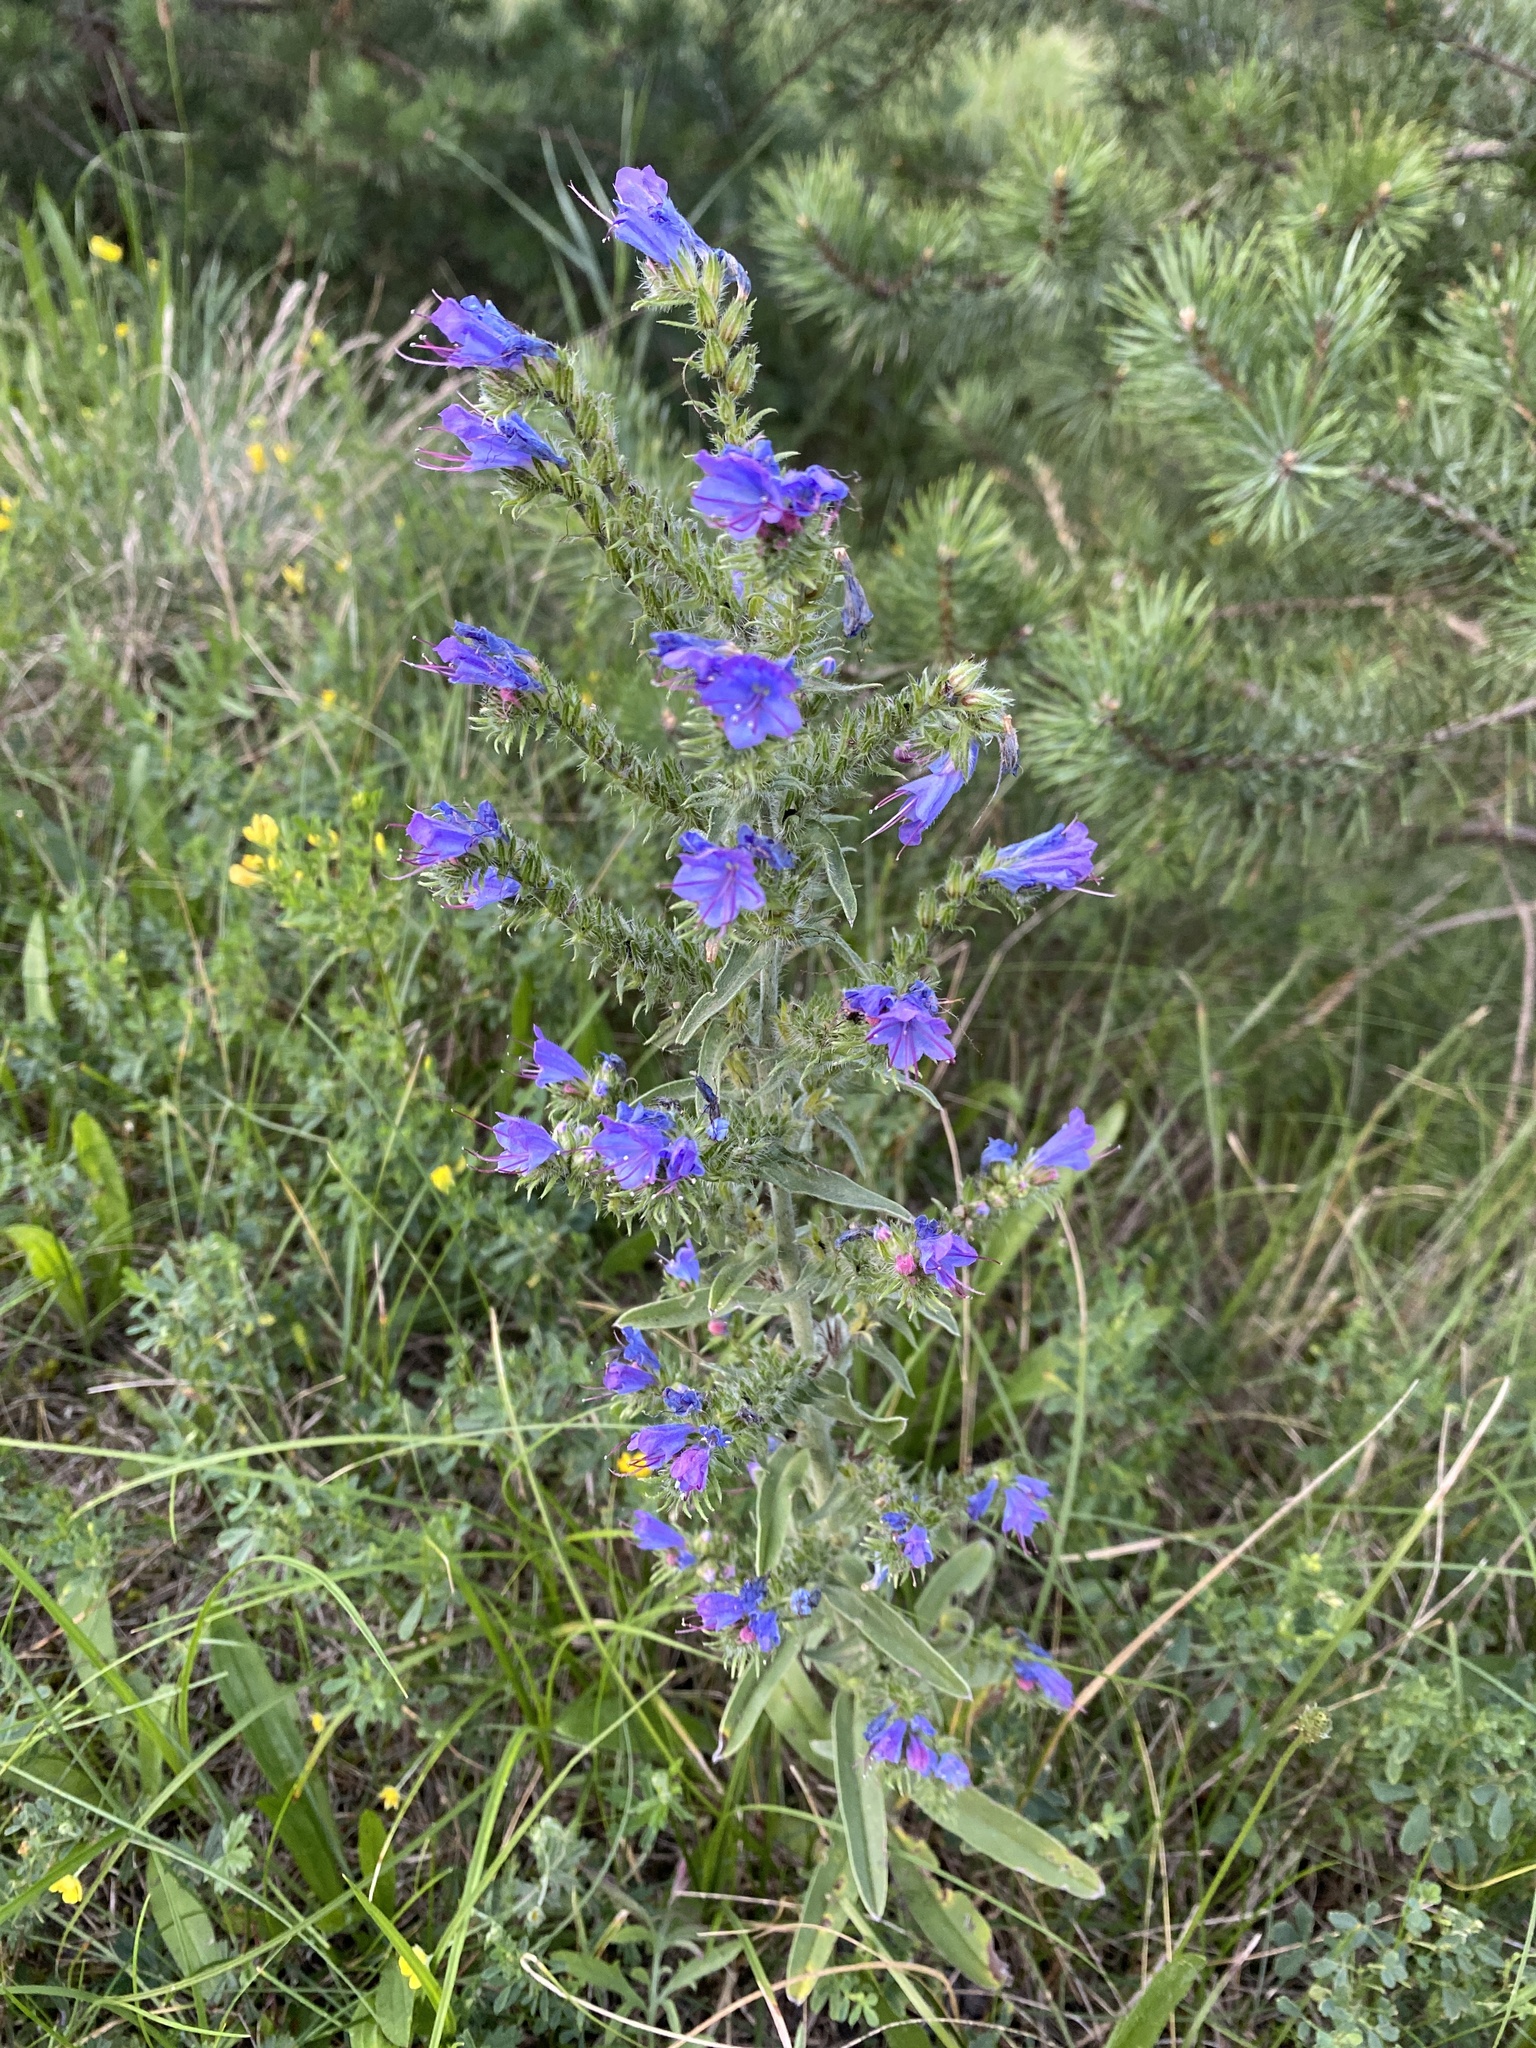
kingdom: Plantae
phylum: Tracheophyta
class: Magnoliopsida
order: Boraginales
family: Boraginaceae
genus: Echium
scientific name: Echium vulgare
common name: Common viper's bugloss
